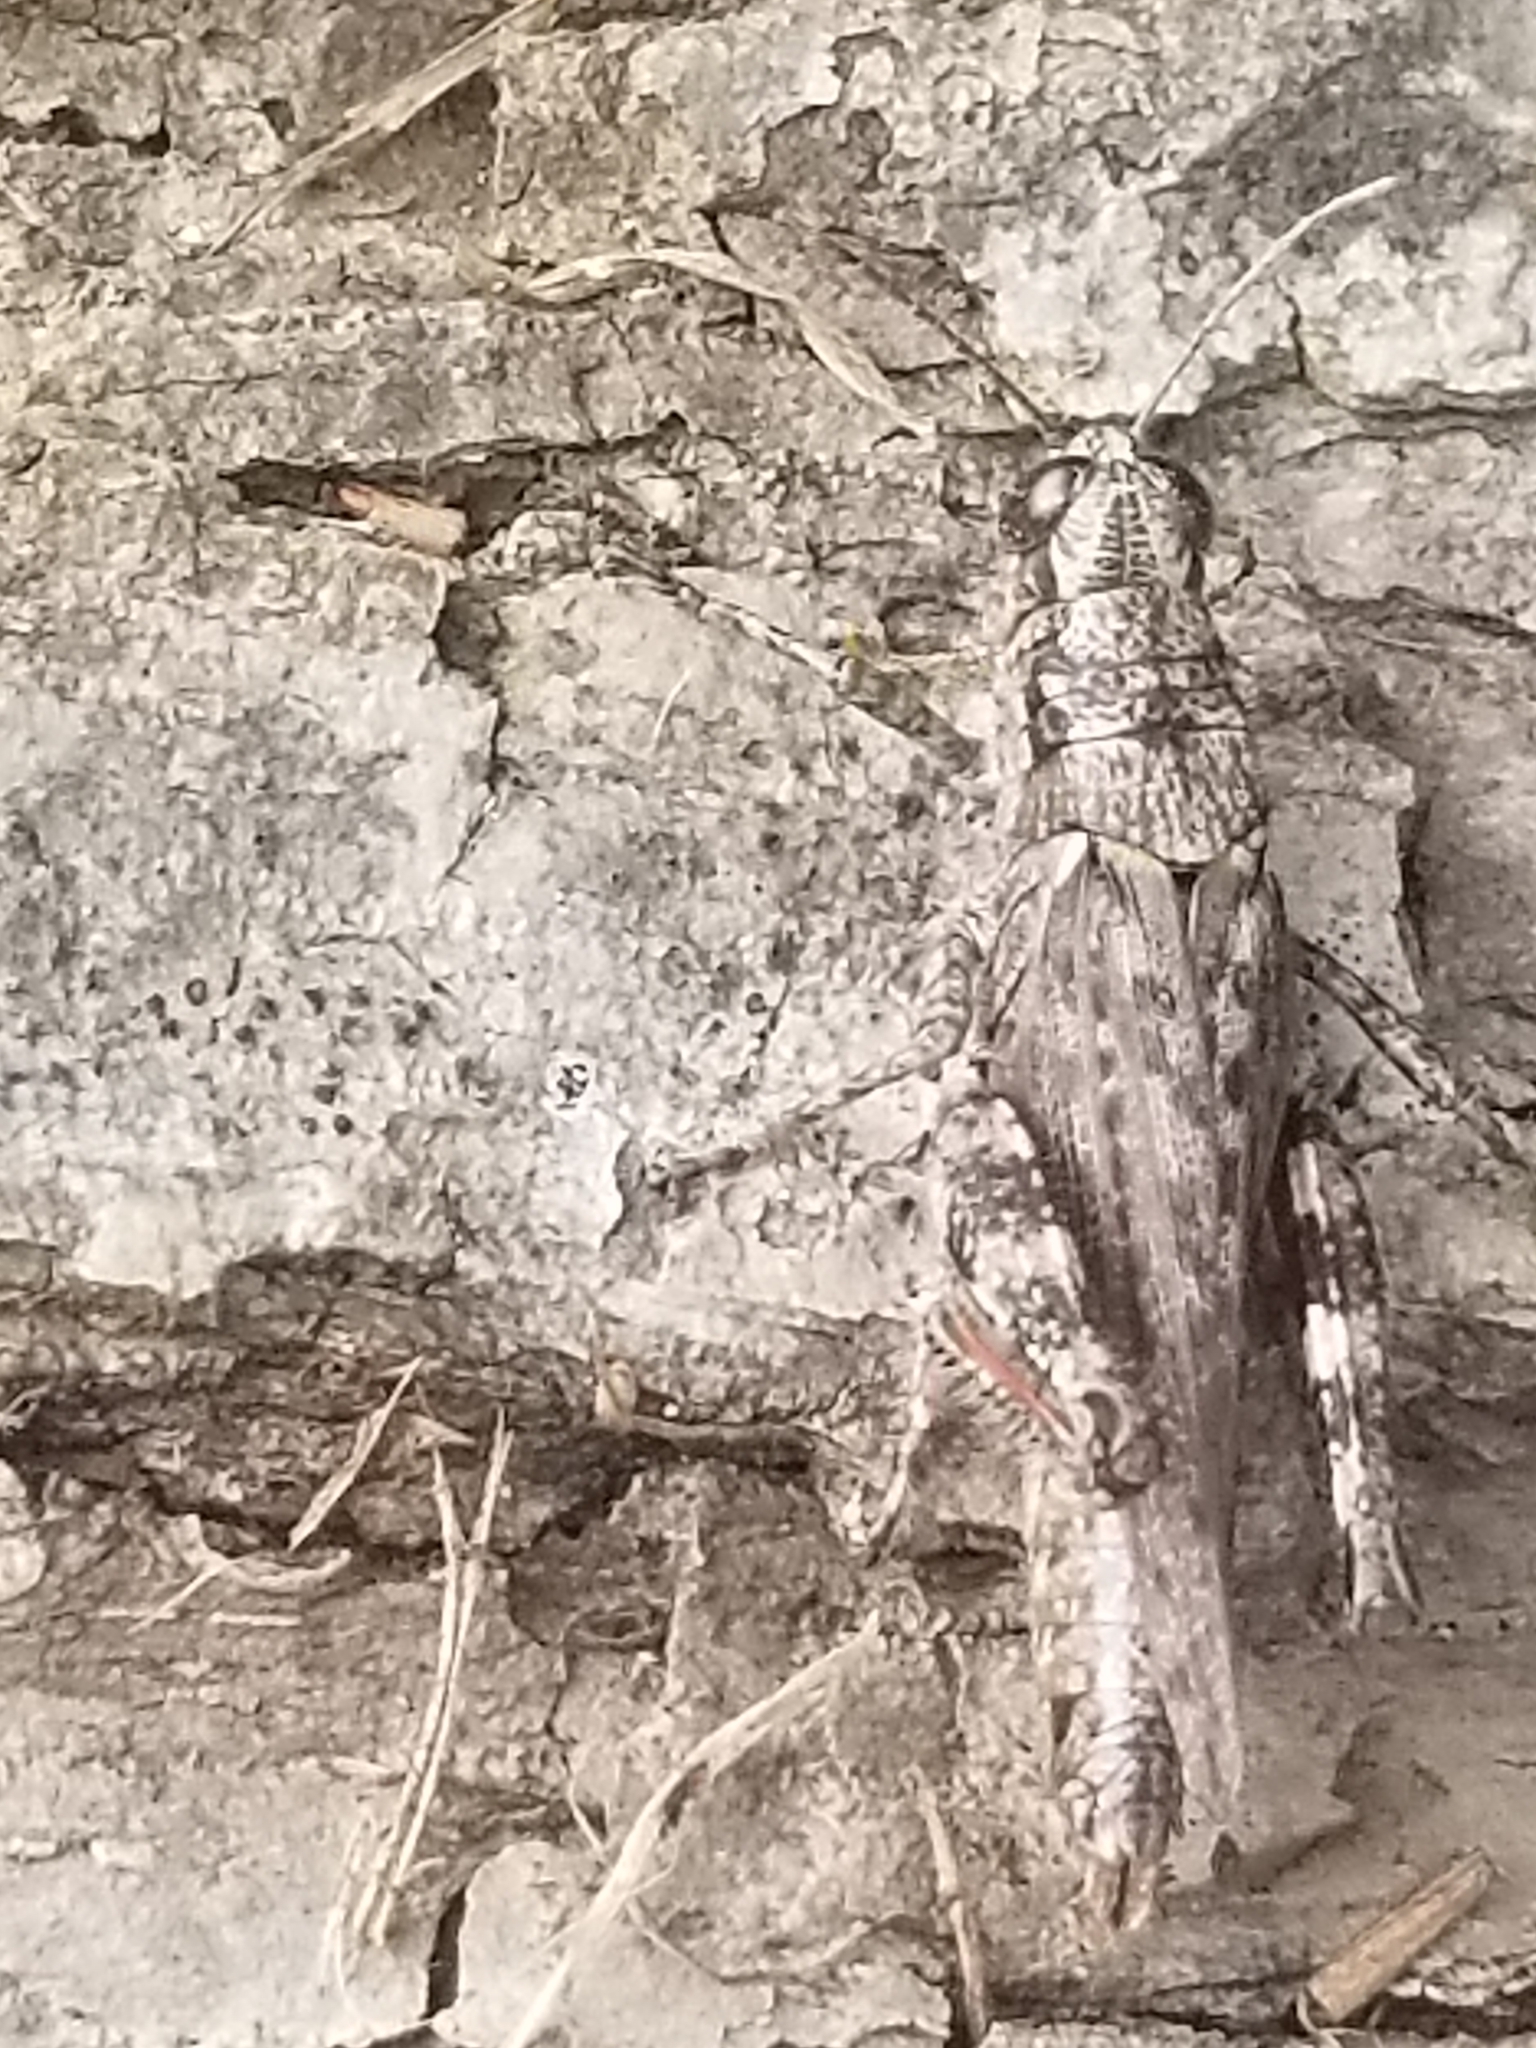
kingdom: Animalia
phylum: Arthropoda
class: Insecta
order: Orthoptera
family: Acrididae
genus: Melanoplus
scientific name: Melanoplus punctulatus
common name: Pine-tree spur-throat grasshopper
